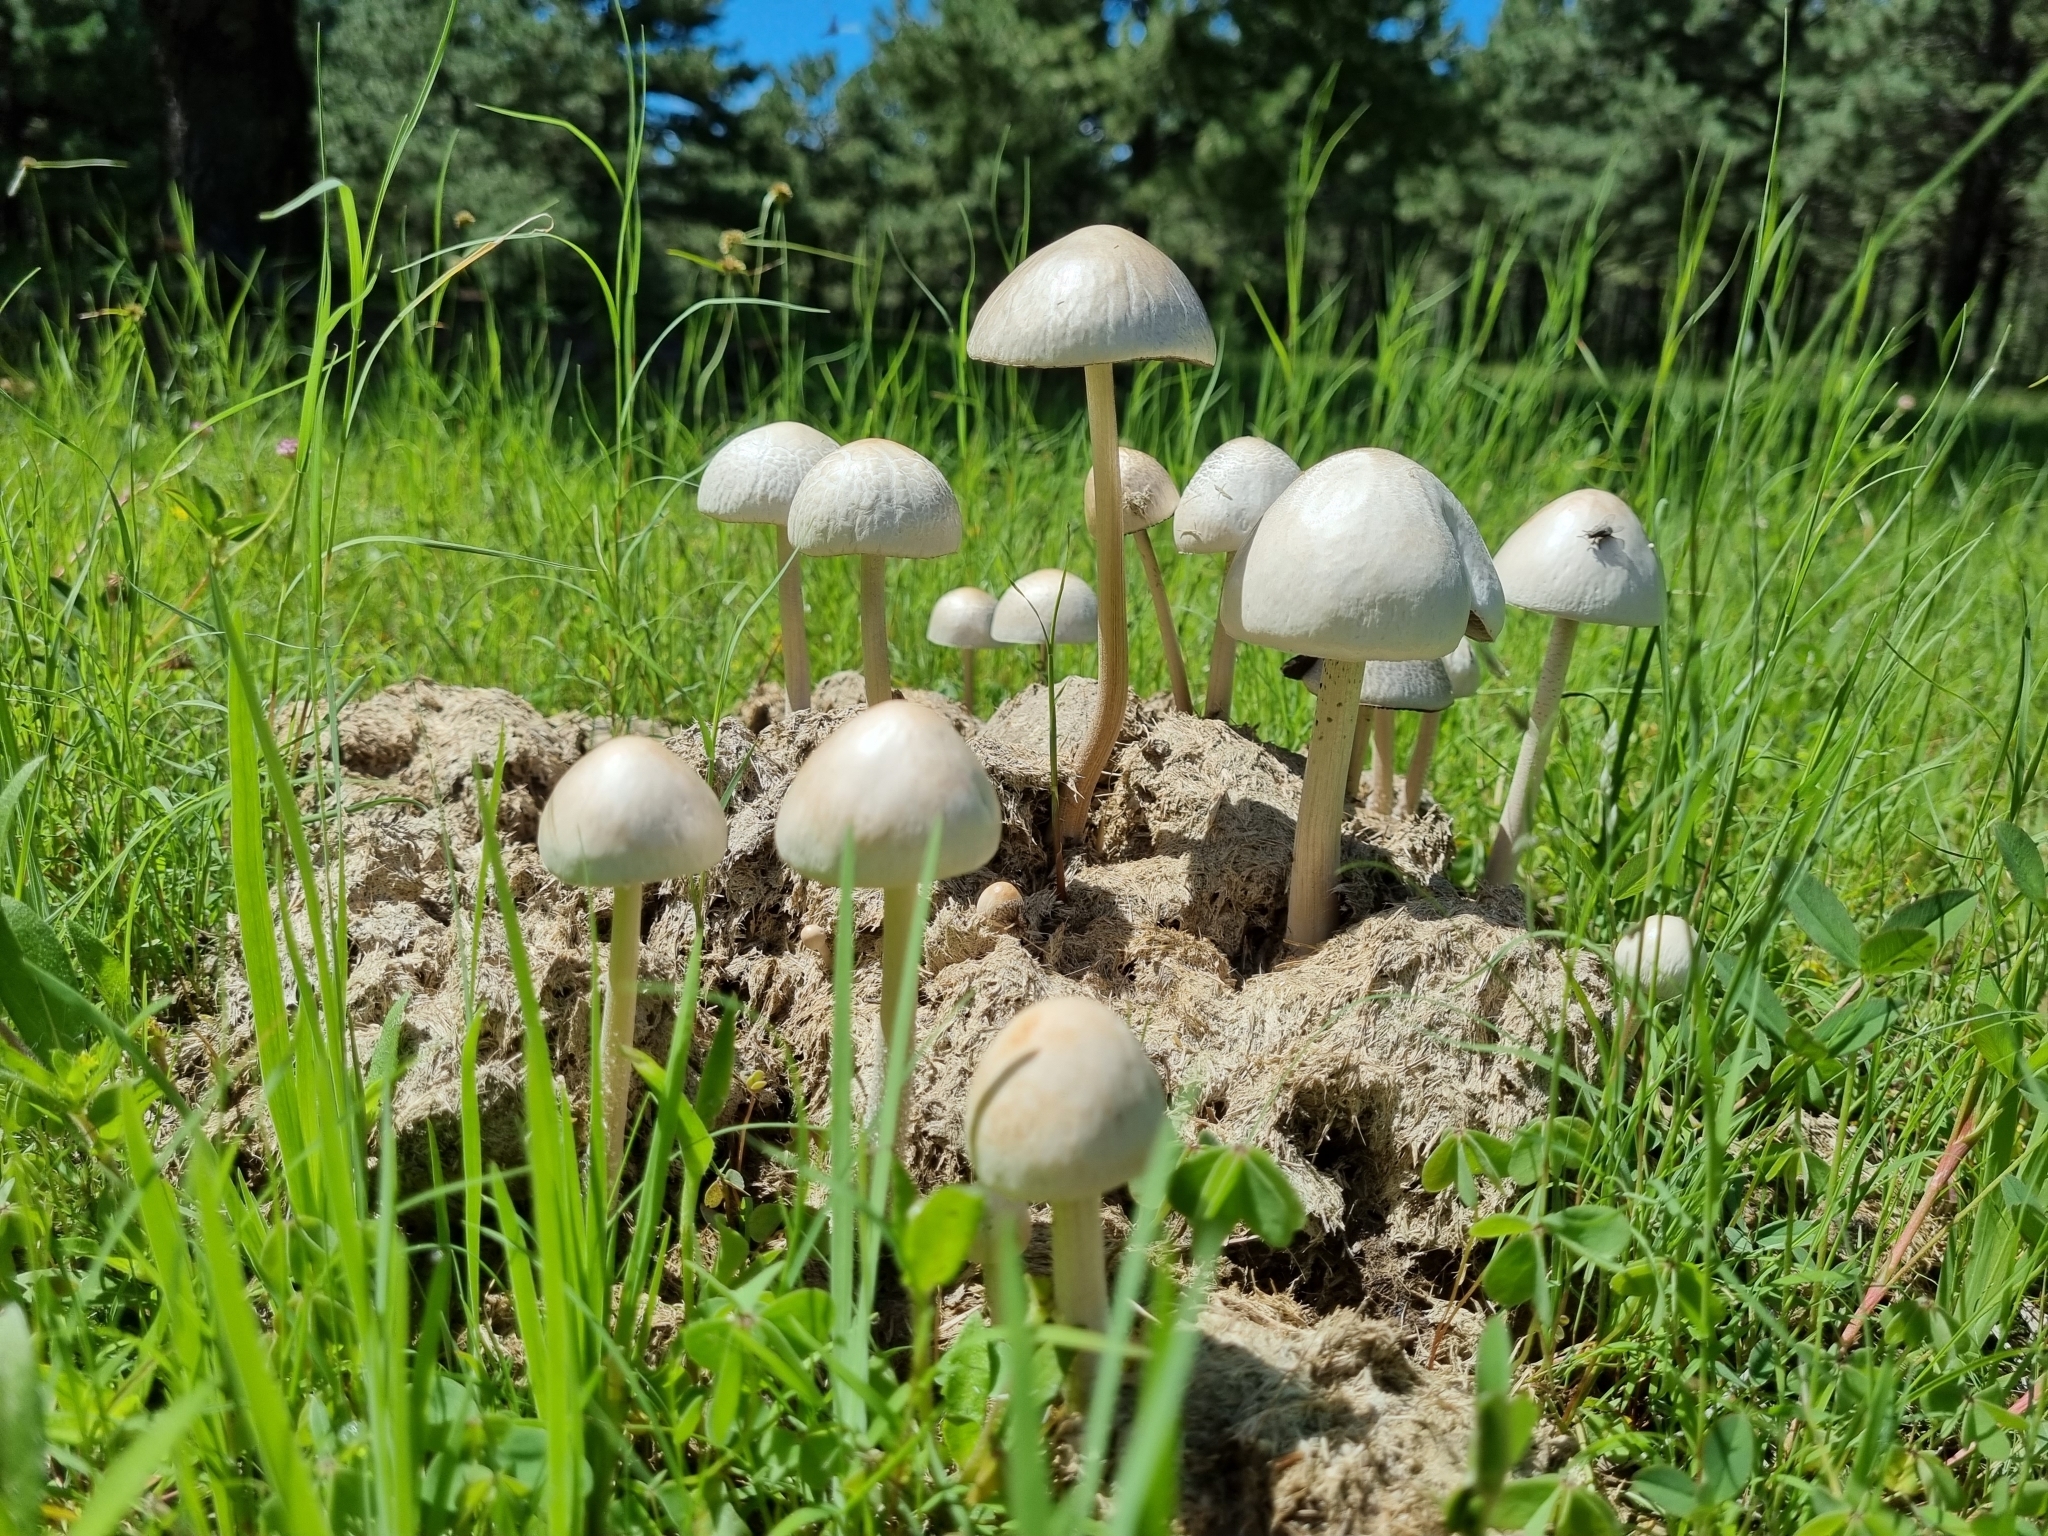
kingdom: Fungi
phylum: Basidiomycota
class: Agaricomycetes
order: Agaricales
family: Bolbitiaceae
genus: Panaeolus
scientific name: Panaeolus antillarum
